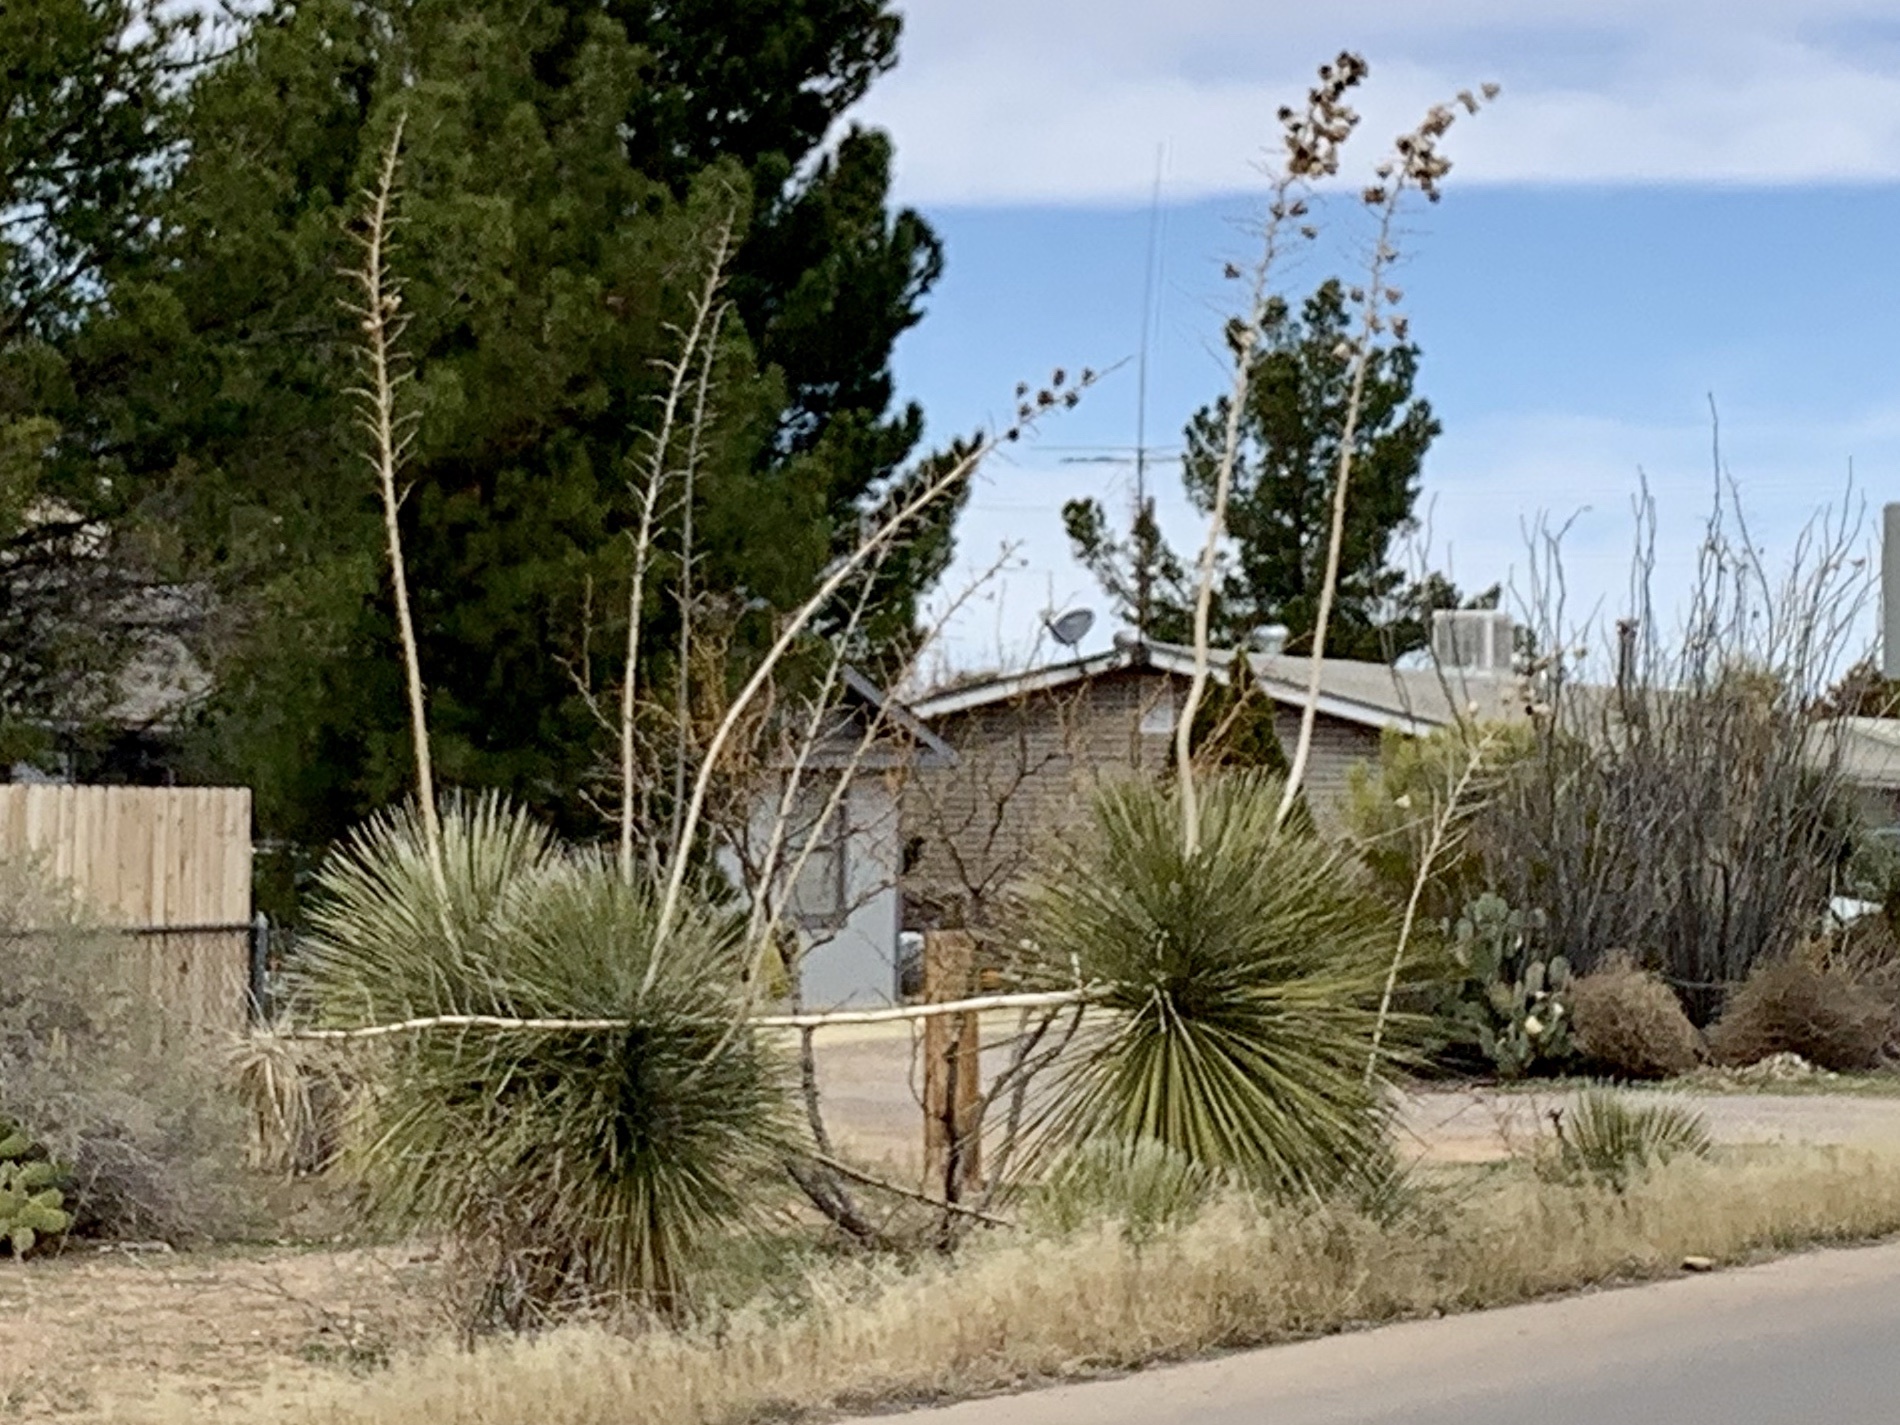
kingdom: Plantae
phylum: Tracheophyta
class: Liliopsida
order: Asparagales
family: Asparagaceae
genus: Yucca
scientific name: Yucca elata
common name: Palmella
